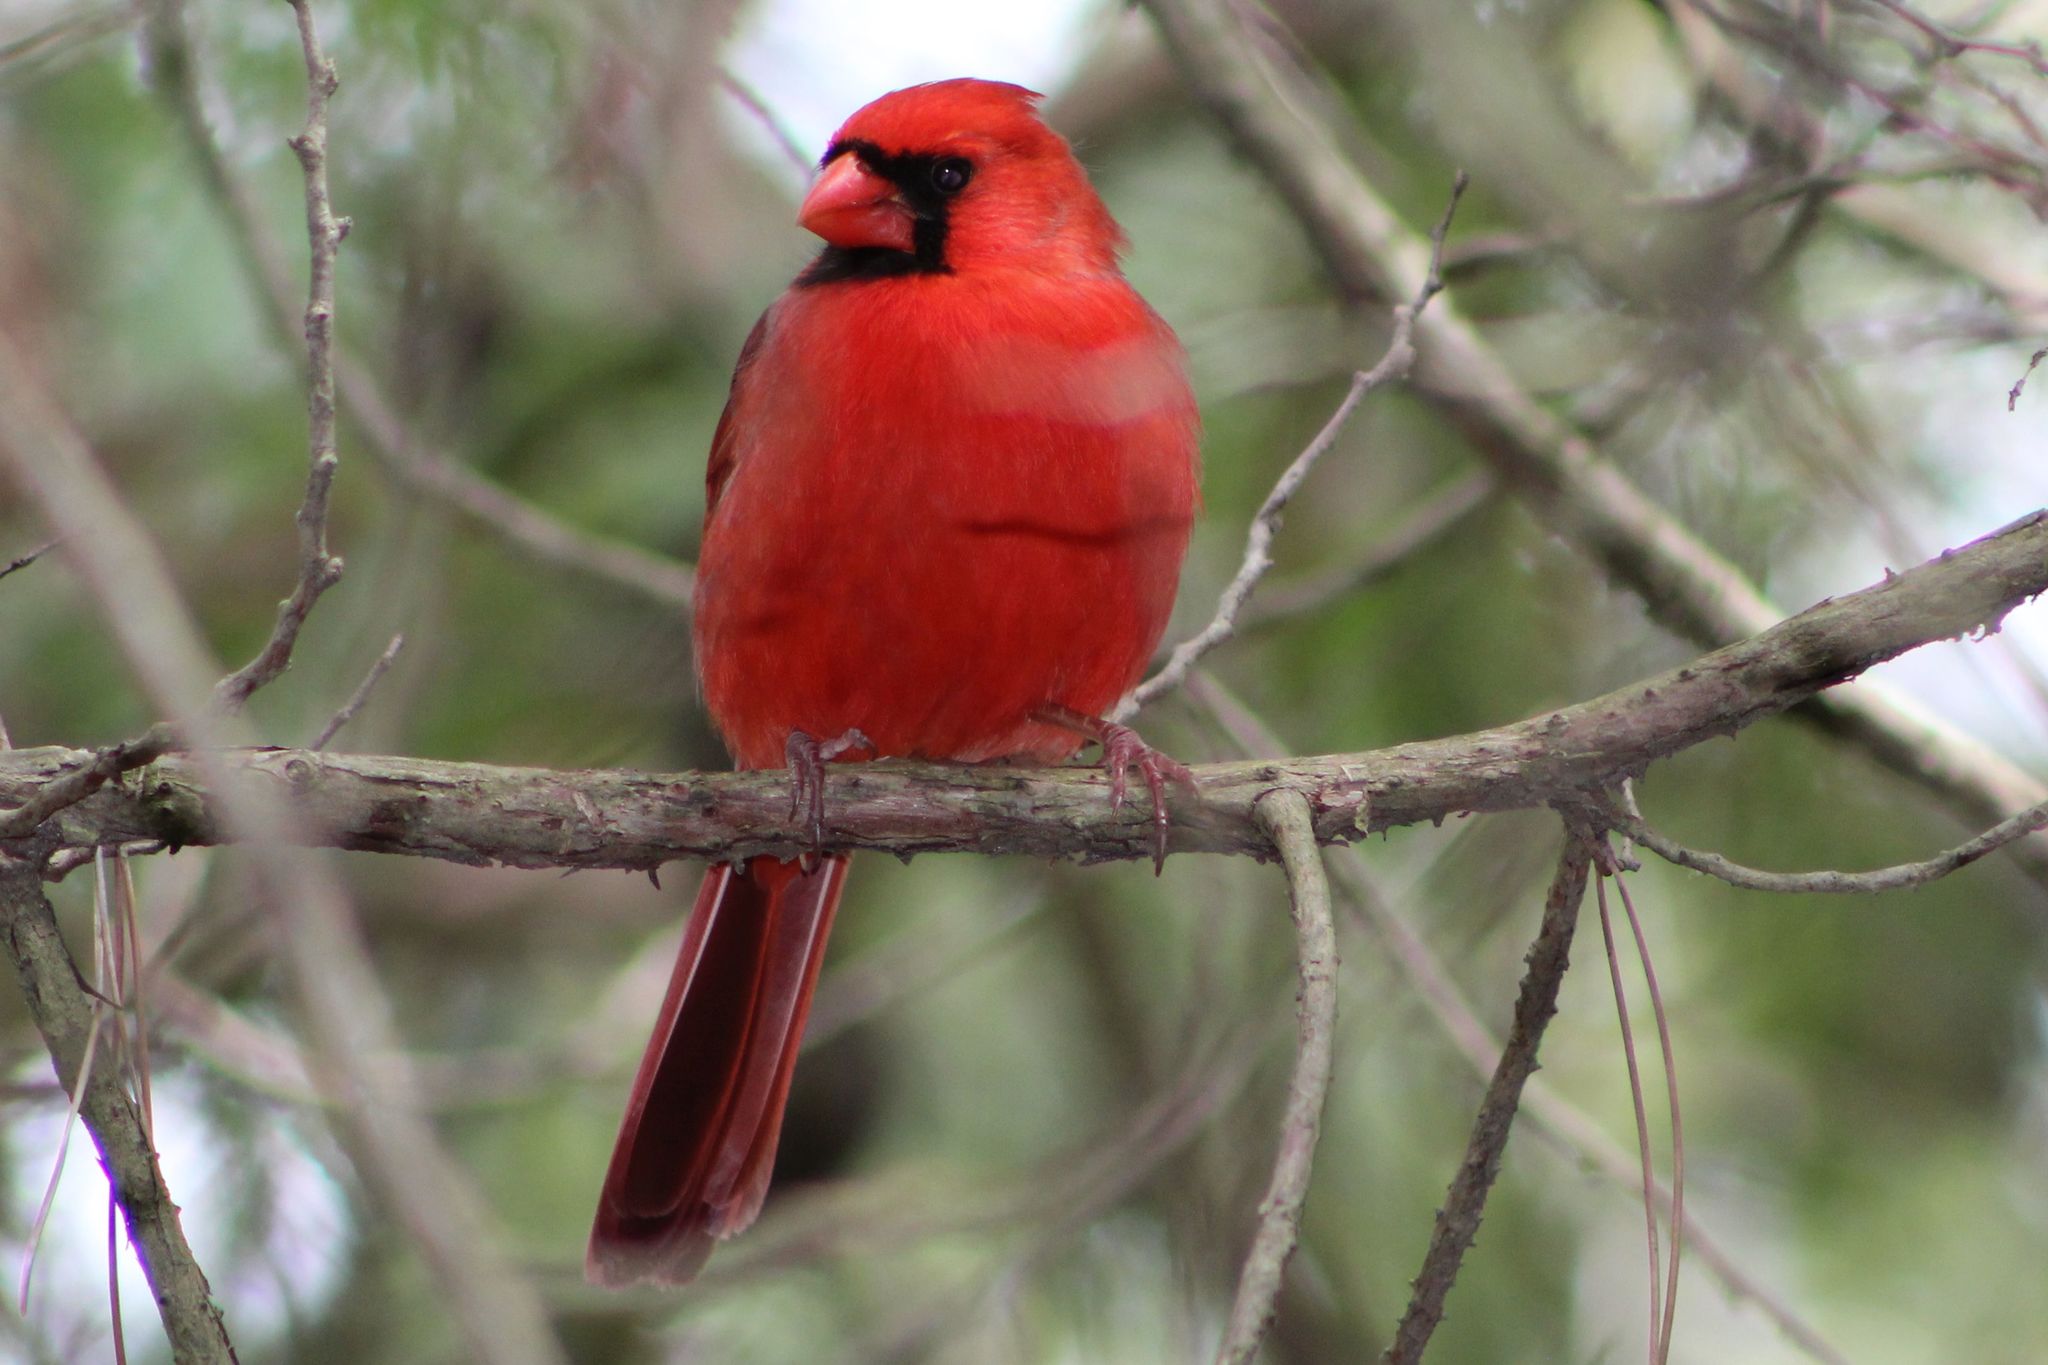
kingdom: Animalia
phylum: Chordata
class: Aves
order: Passeriformes
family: Cardinalidae
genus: Cardinalis
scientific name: Cardinalis cardinalis
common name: Northern cardinal
